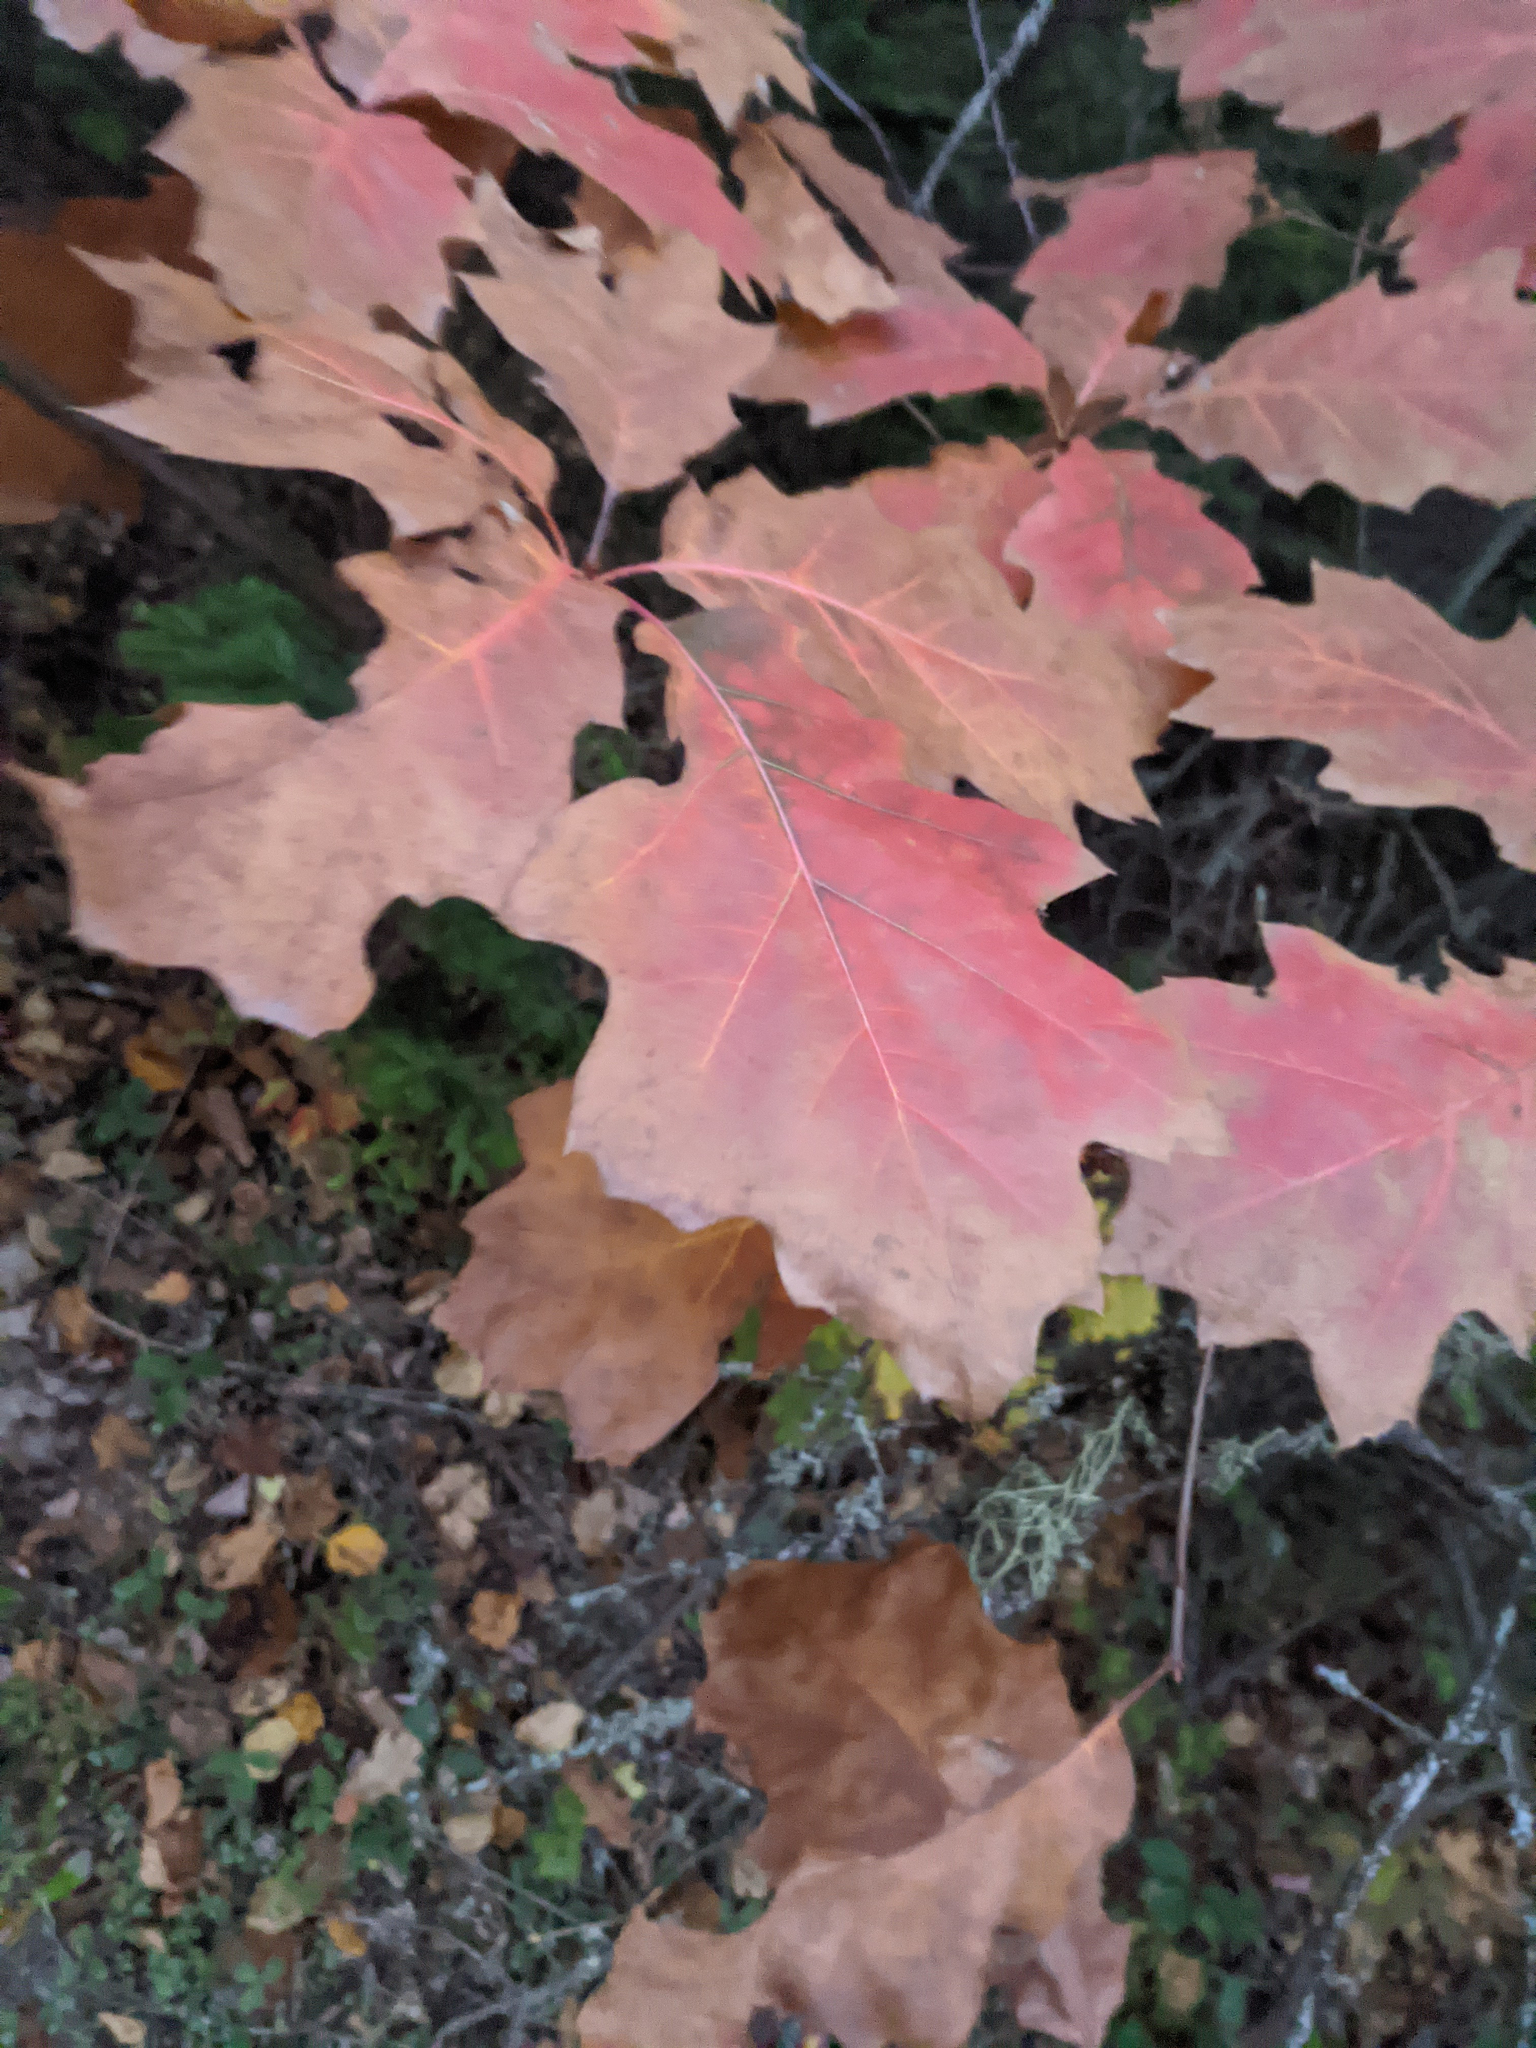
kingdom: Plantae
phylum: Tracheophyta
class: Magnoliopsida
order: Fagales
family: Fagaceae
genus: Quercus
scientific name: Quercus rubra
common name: Red oak
